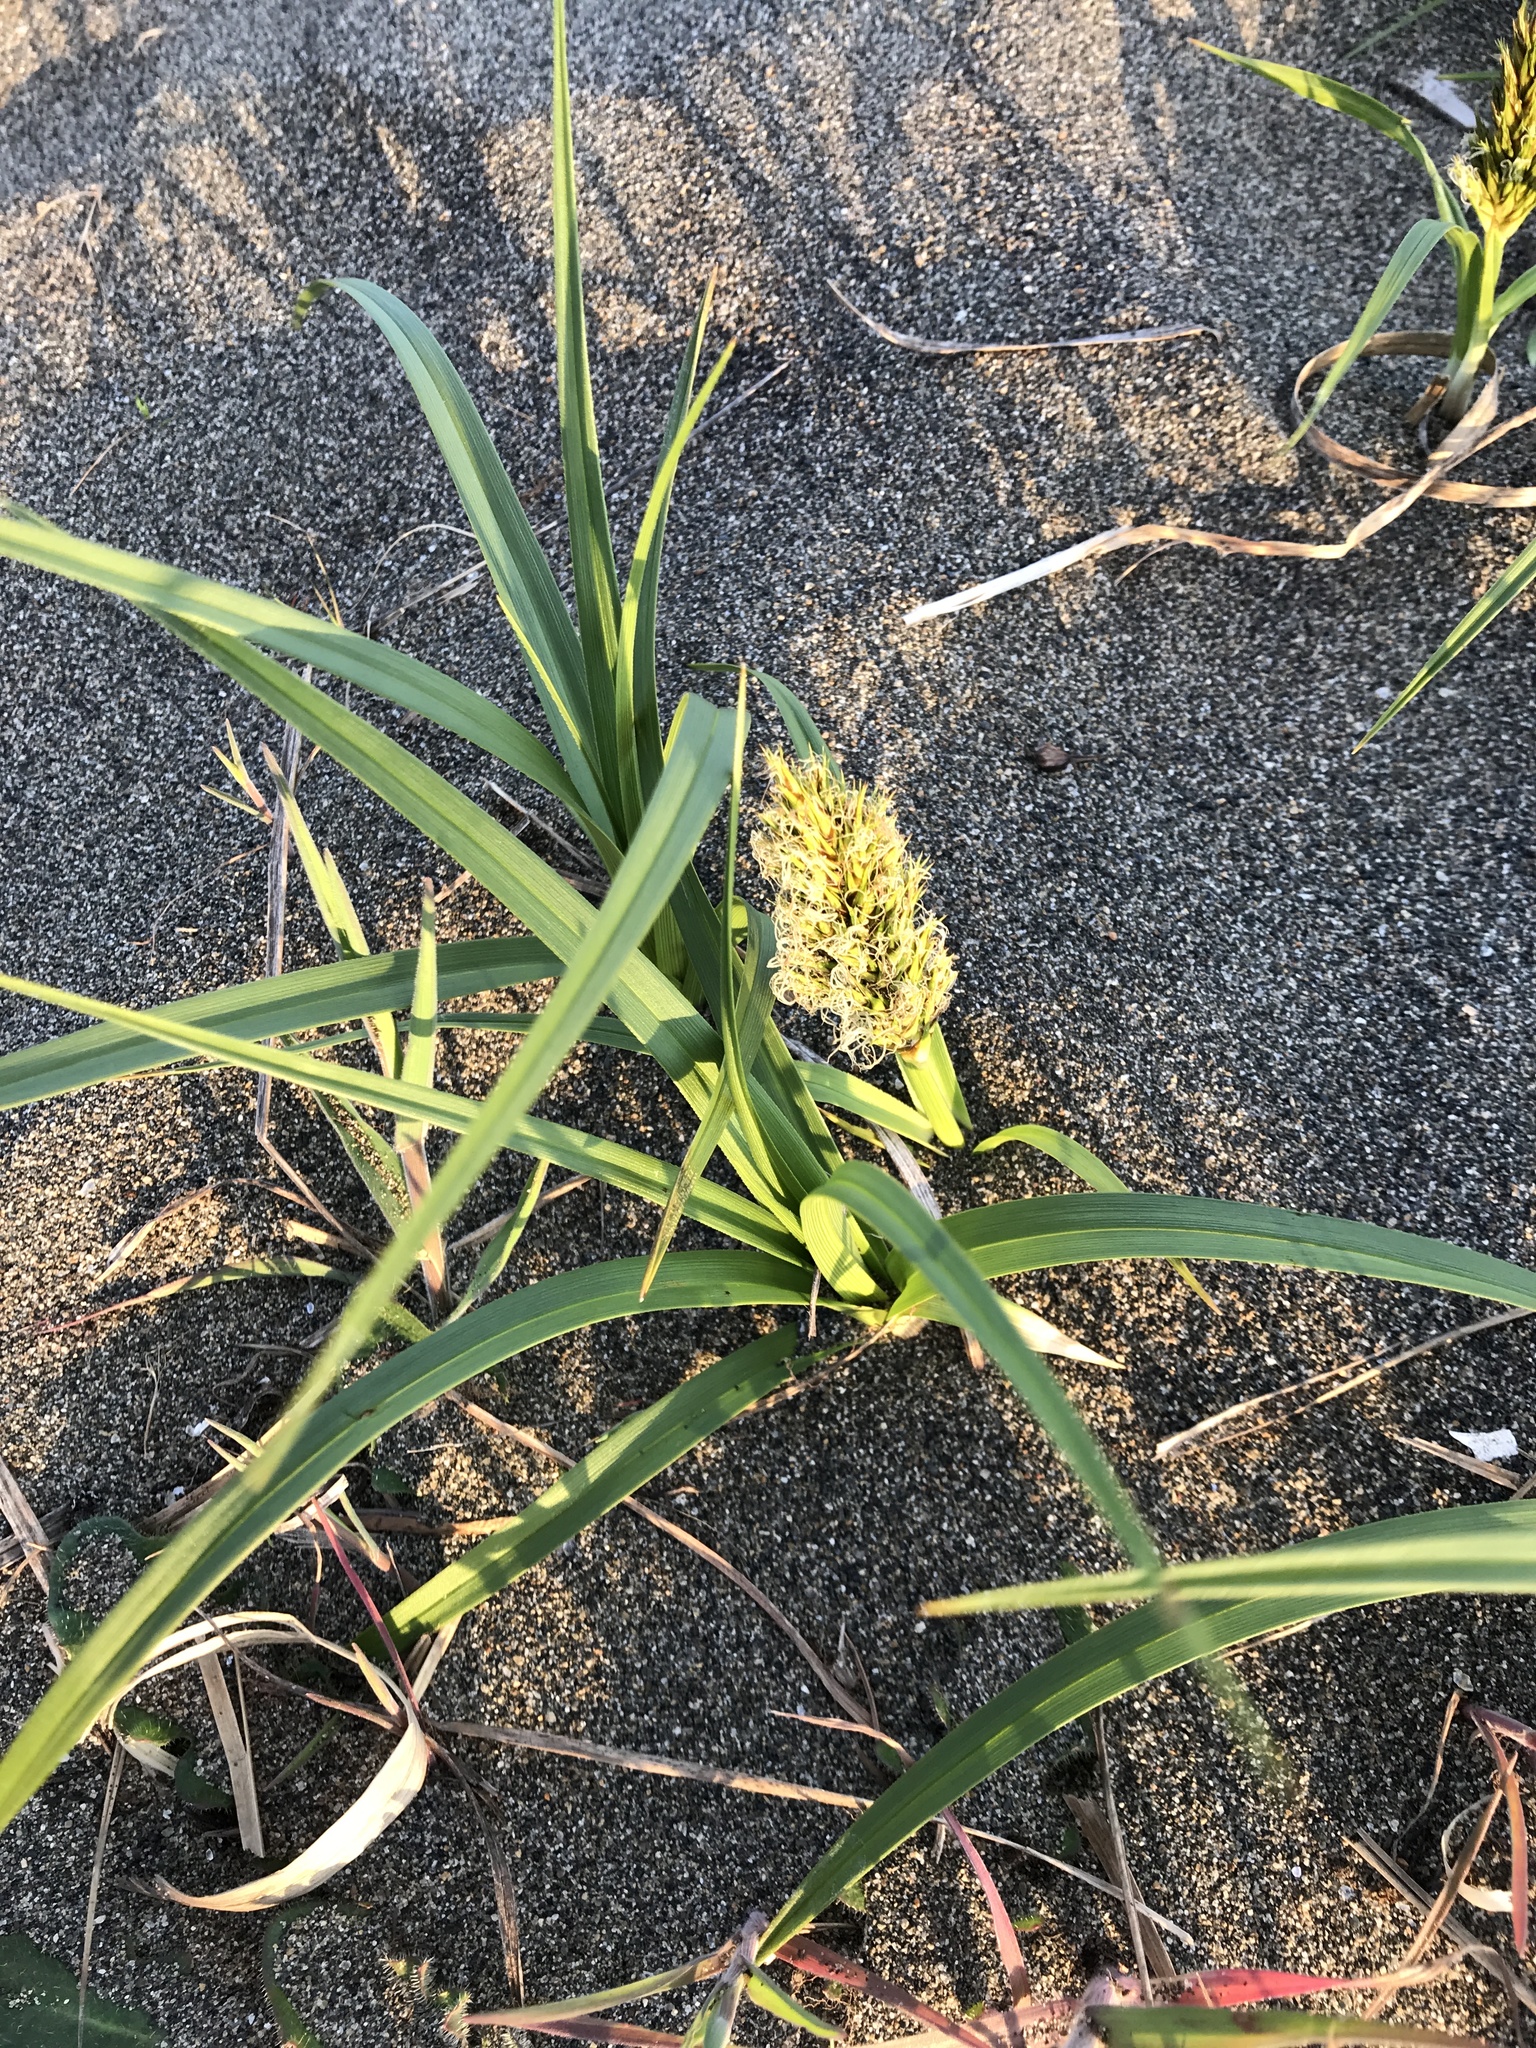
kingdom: Plantae
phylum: Tracheophyta
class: Liliopsida
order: Poales
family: Cyperaceae
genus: Carex
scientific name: Carex macrocephala
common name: Large-head sedge
